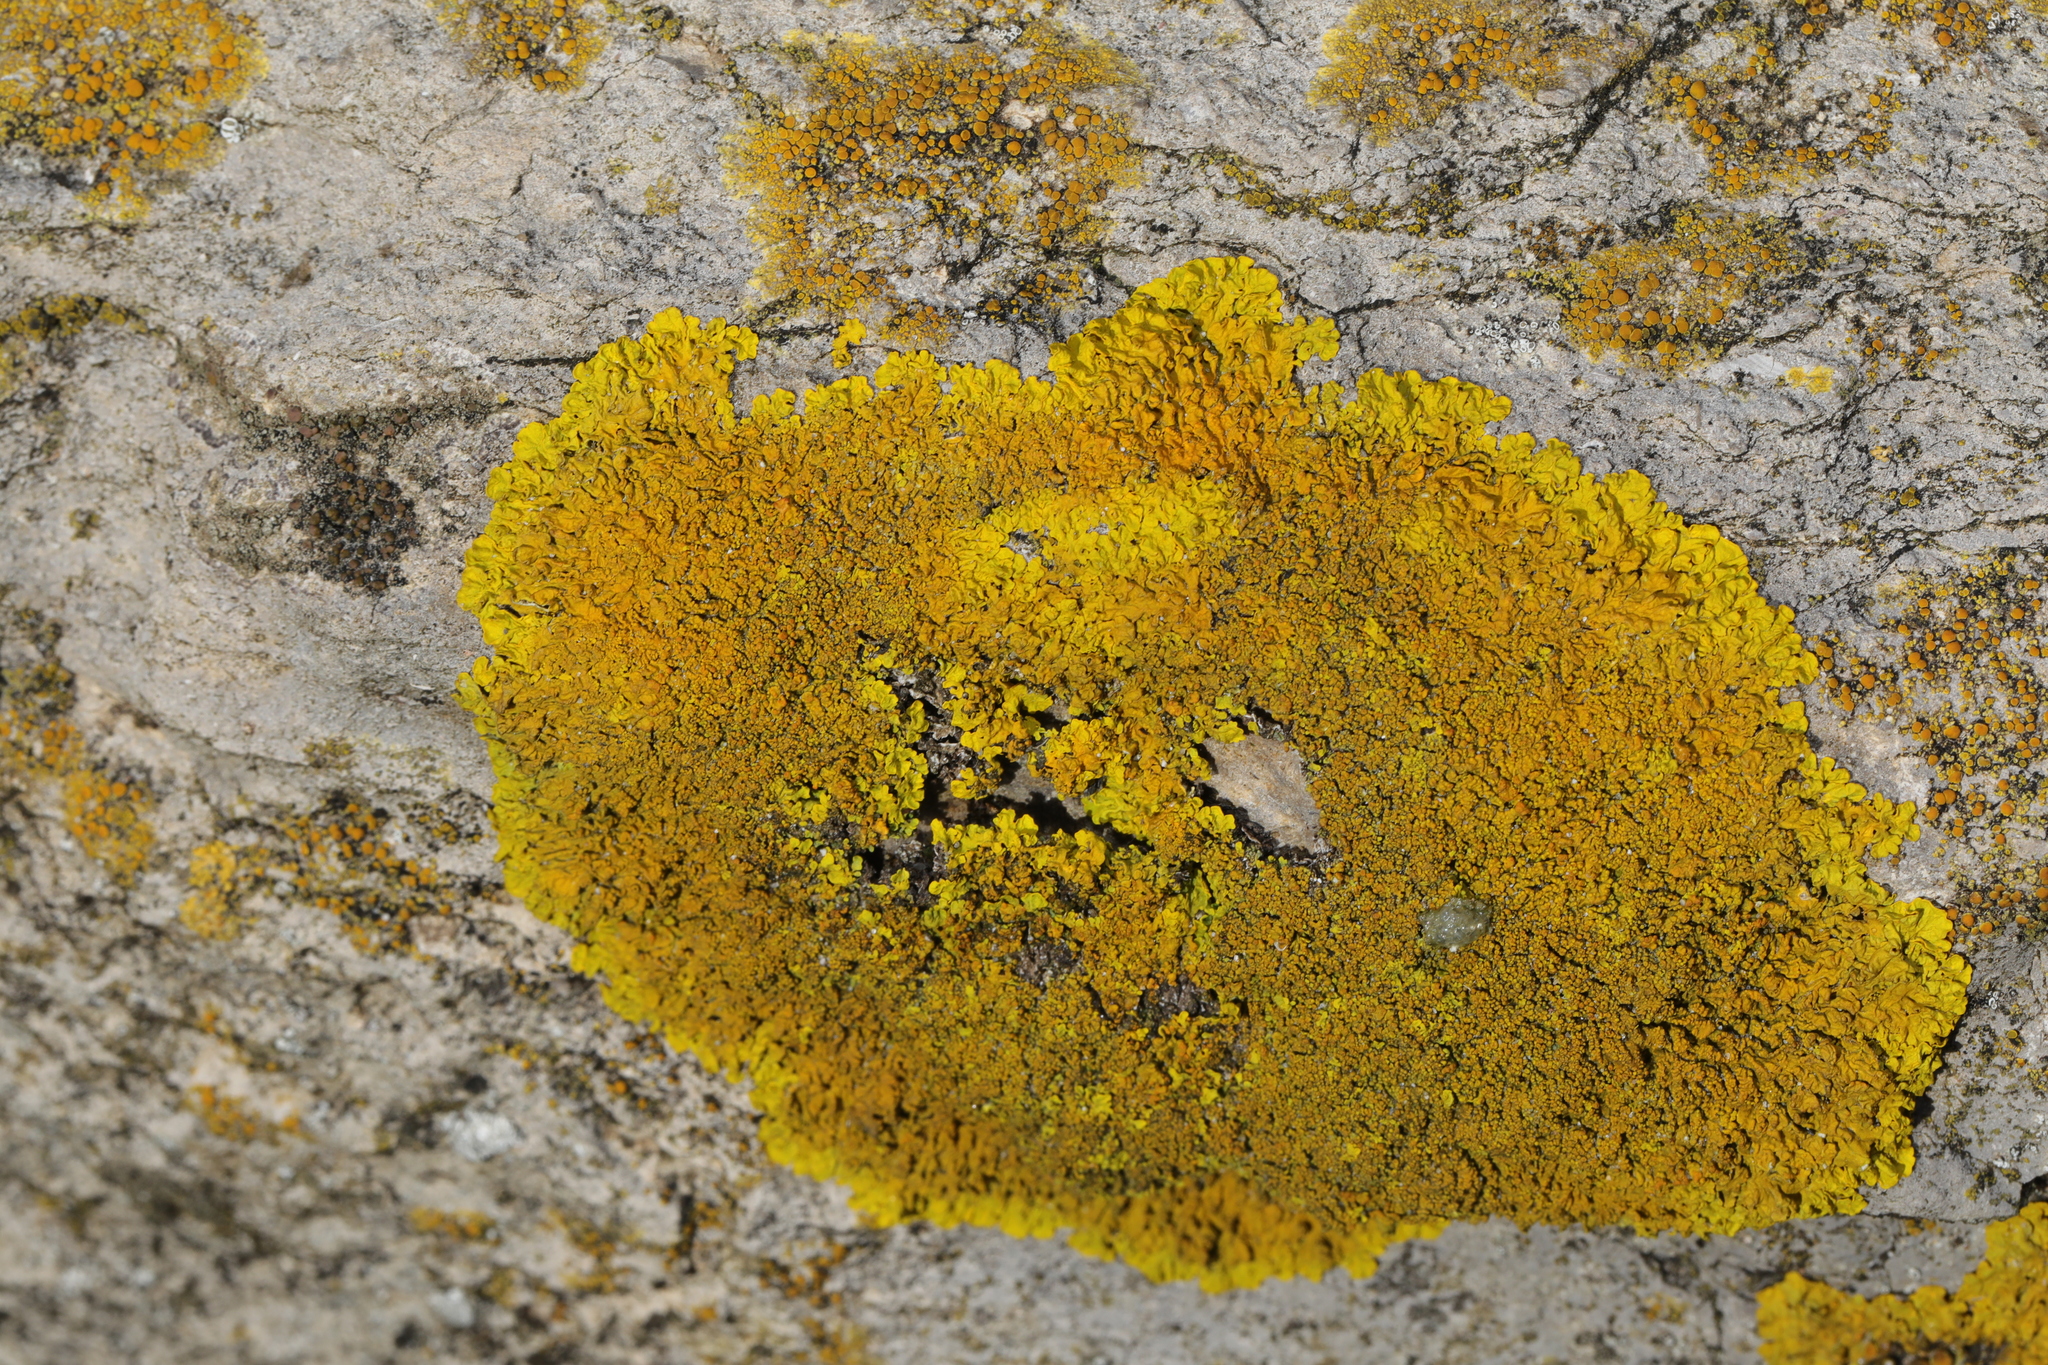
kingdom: Fungi
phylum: Ascomycota
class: Lecanoromycetes
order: Teloschistales
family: Teloschistaceae
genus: Xanthoria
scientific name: Xanthoria calcicola
